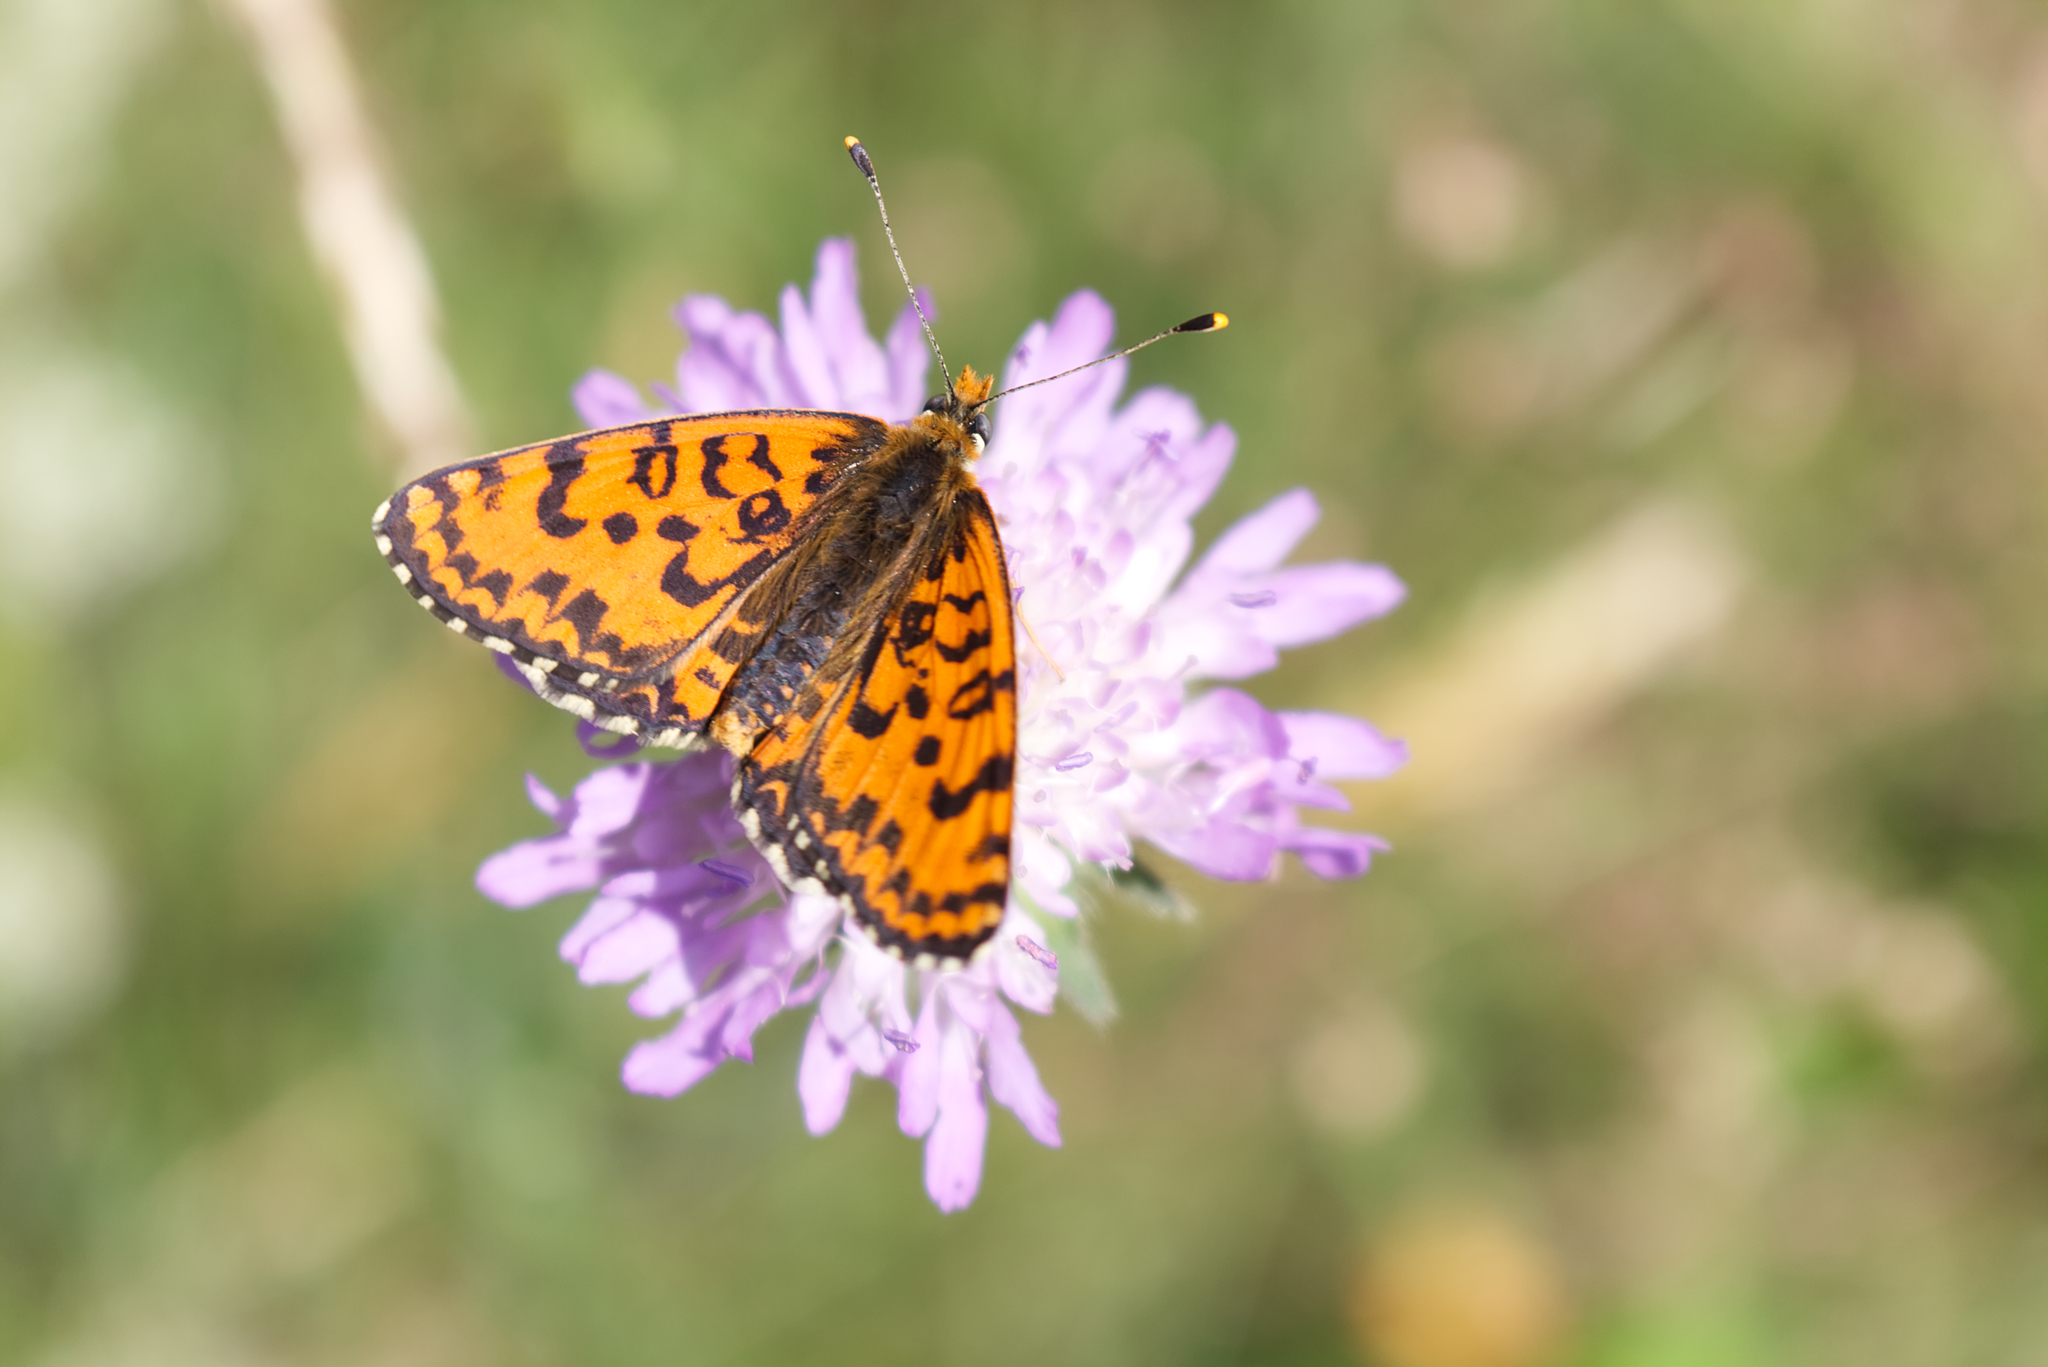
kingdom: Animalia
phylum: Arthropoda
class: Insecta
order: Lepidoptera
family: Nymphalidae
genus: Melitaea
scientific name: Melitaea didyma
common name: Spotted fritillary
